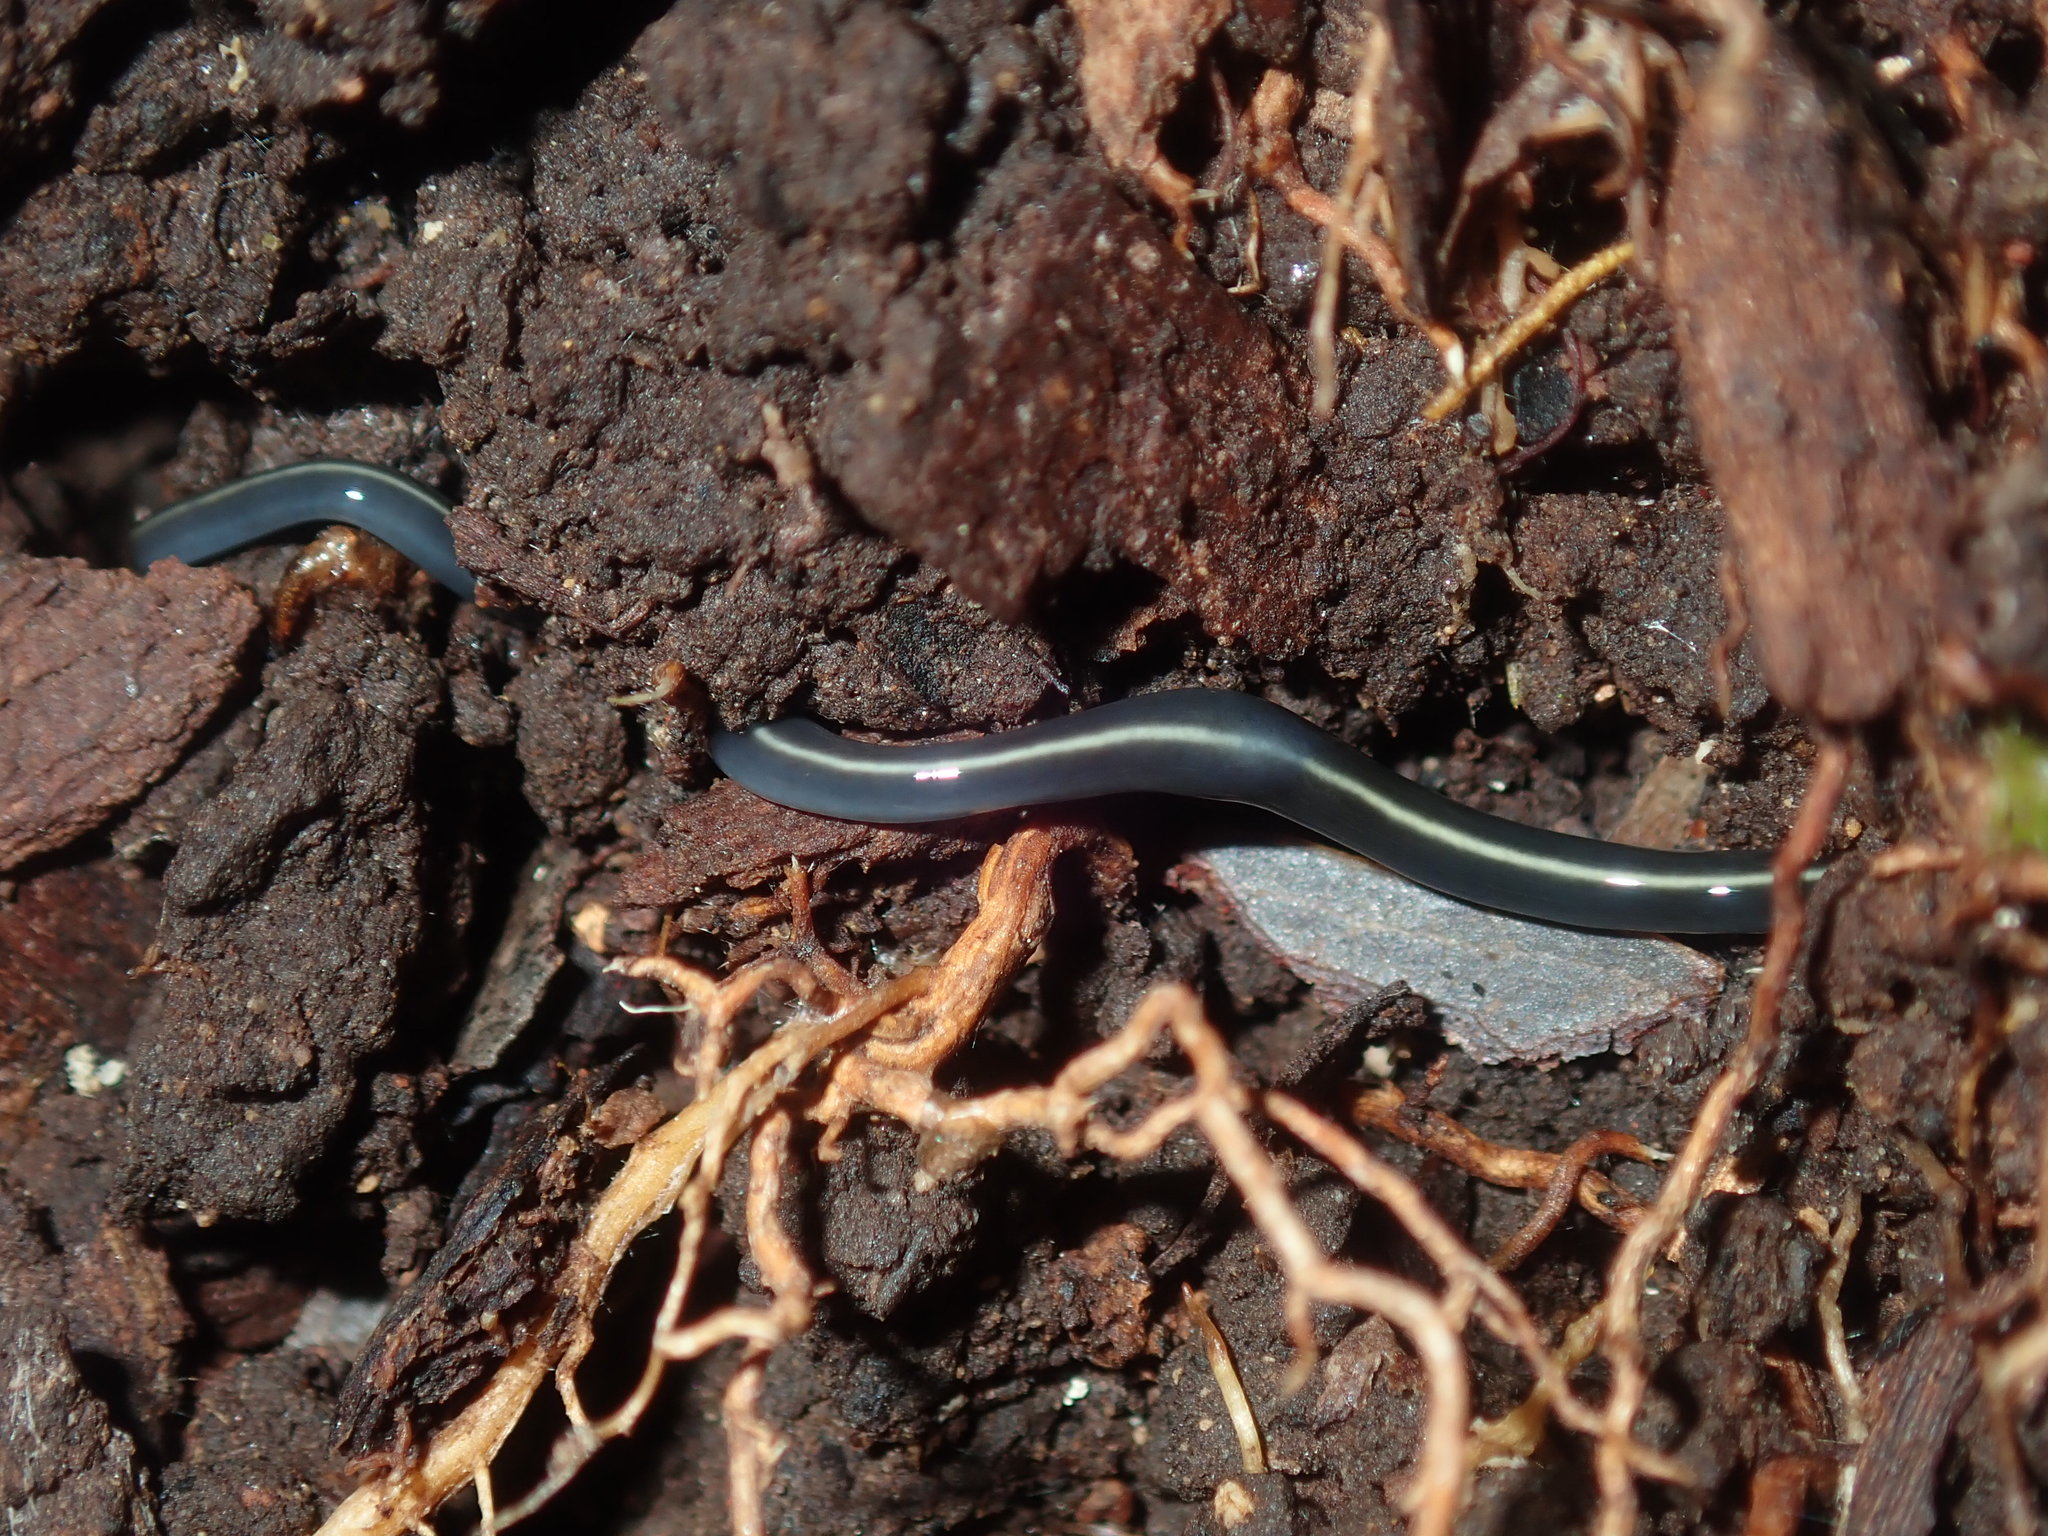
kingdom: Animalia
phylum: Platyhelminthes
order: Tricladida
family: Geoplanidae
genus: Caenoplana
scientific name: Caenoplana coerulea
